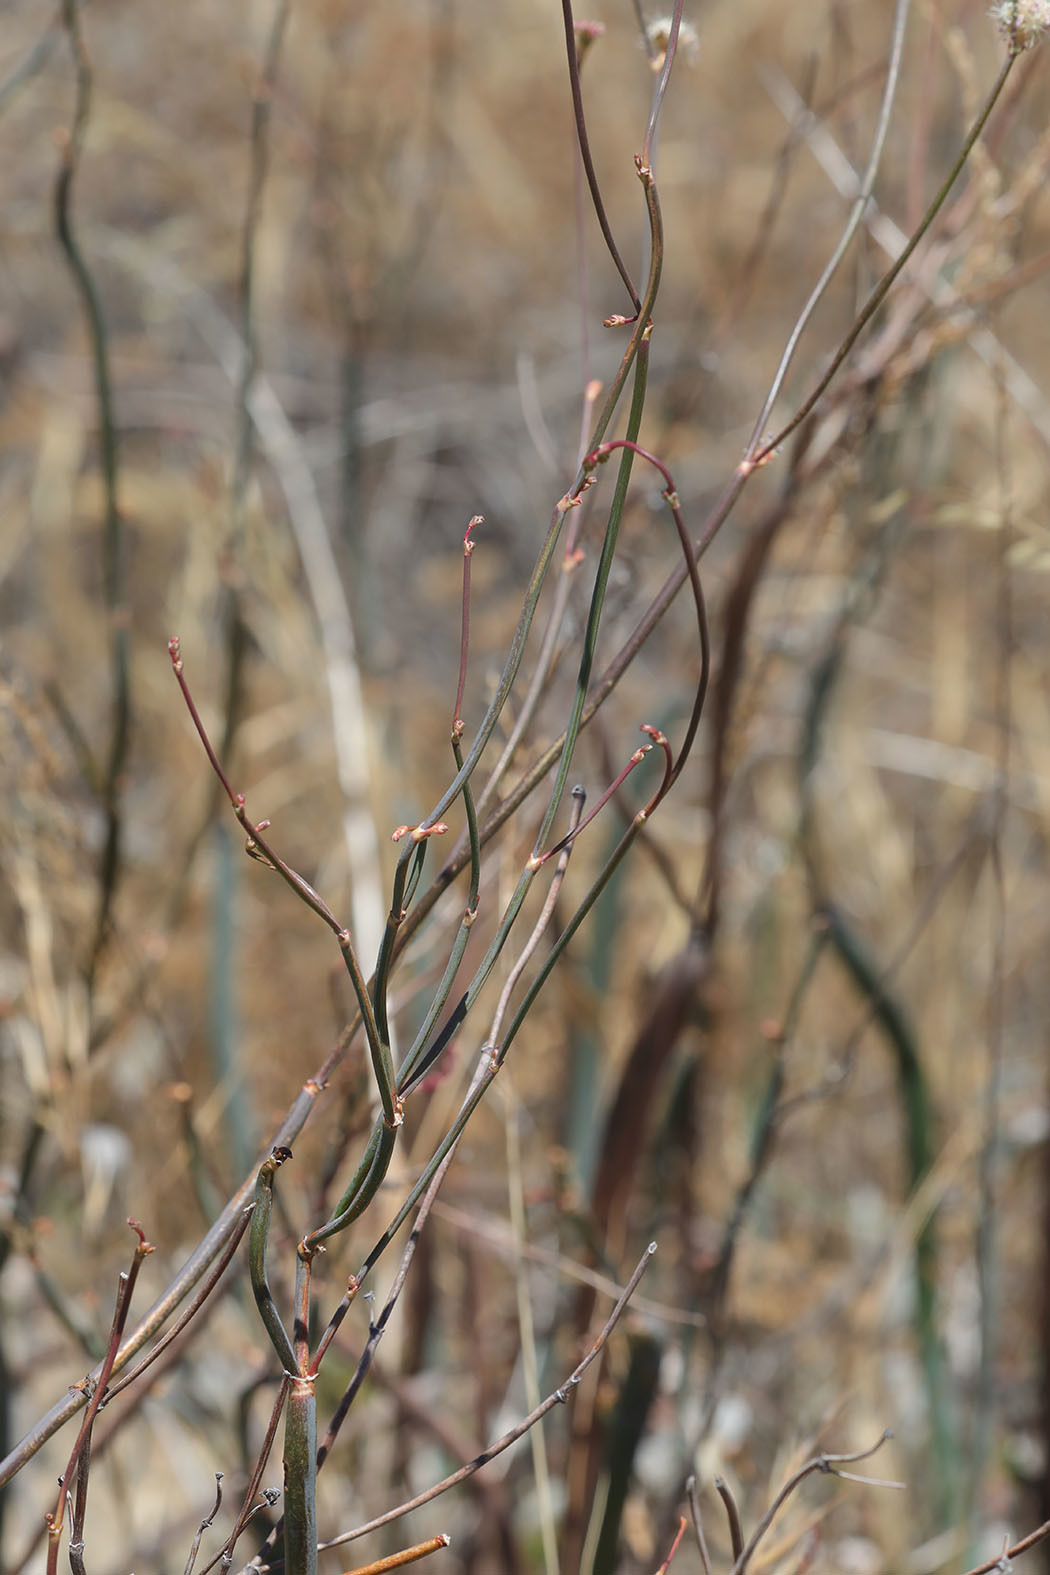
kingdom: Plantae
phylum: Tracheophyta
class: Magnoliopsida
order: Caryophyllales
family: Polygonaceae
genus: Eriogonum
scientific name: Eriogonum nudum
